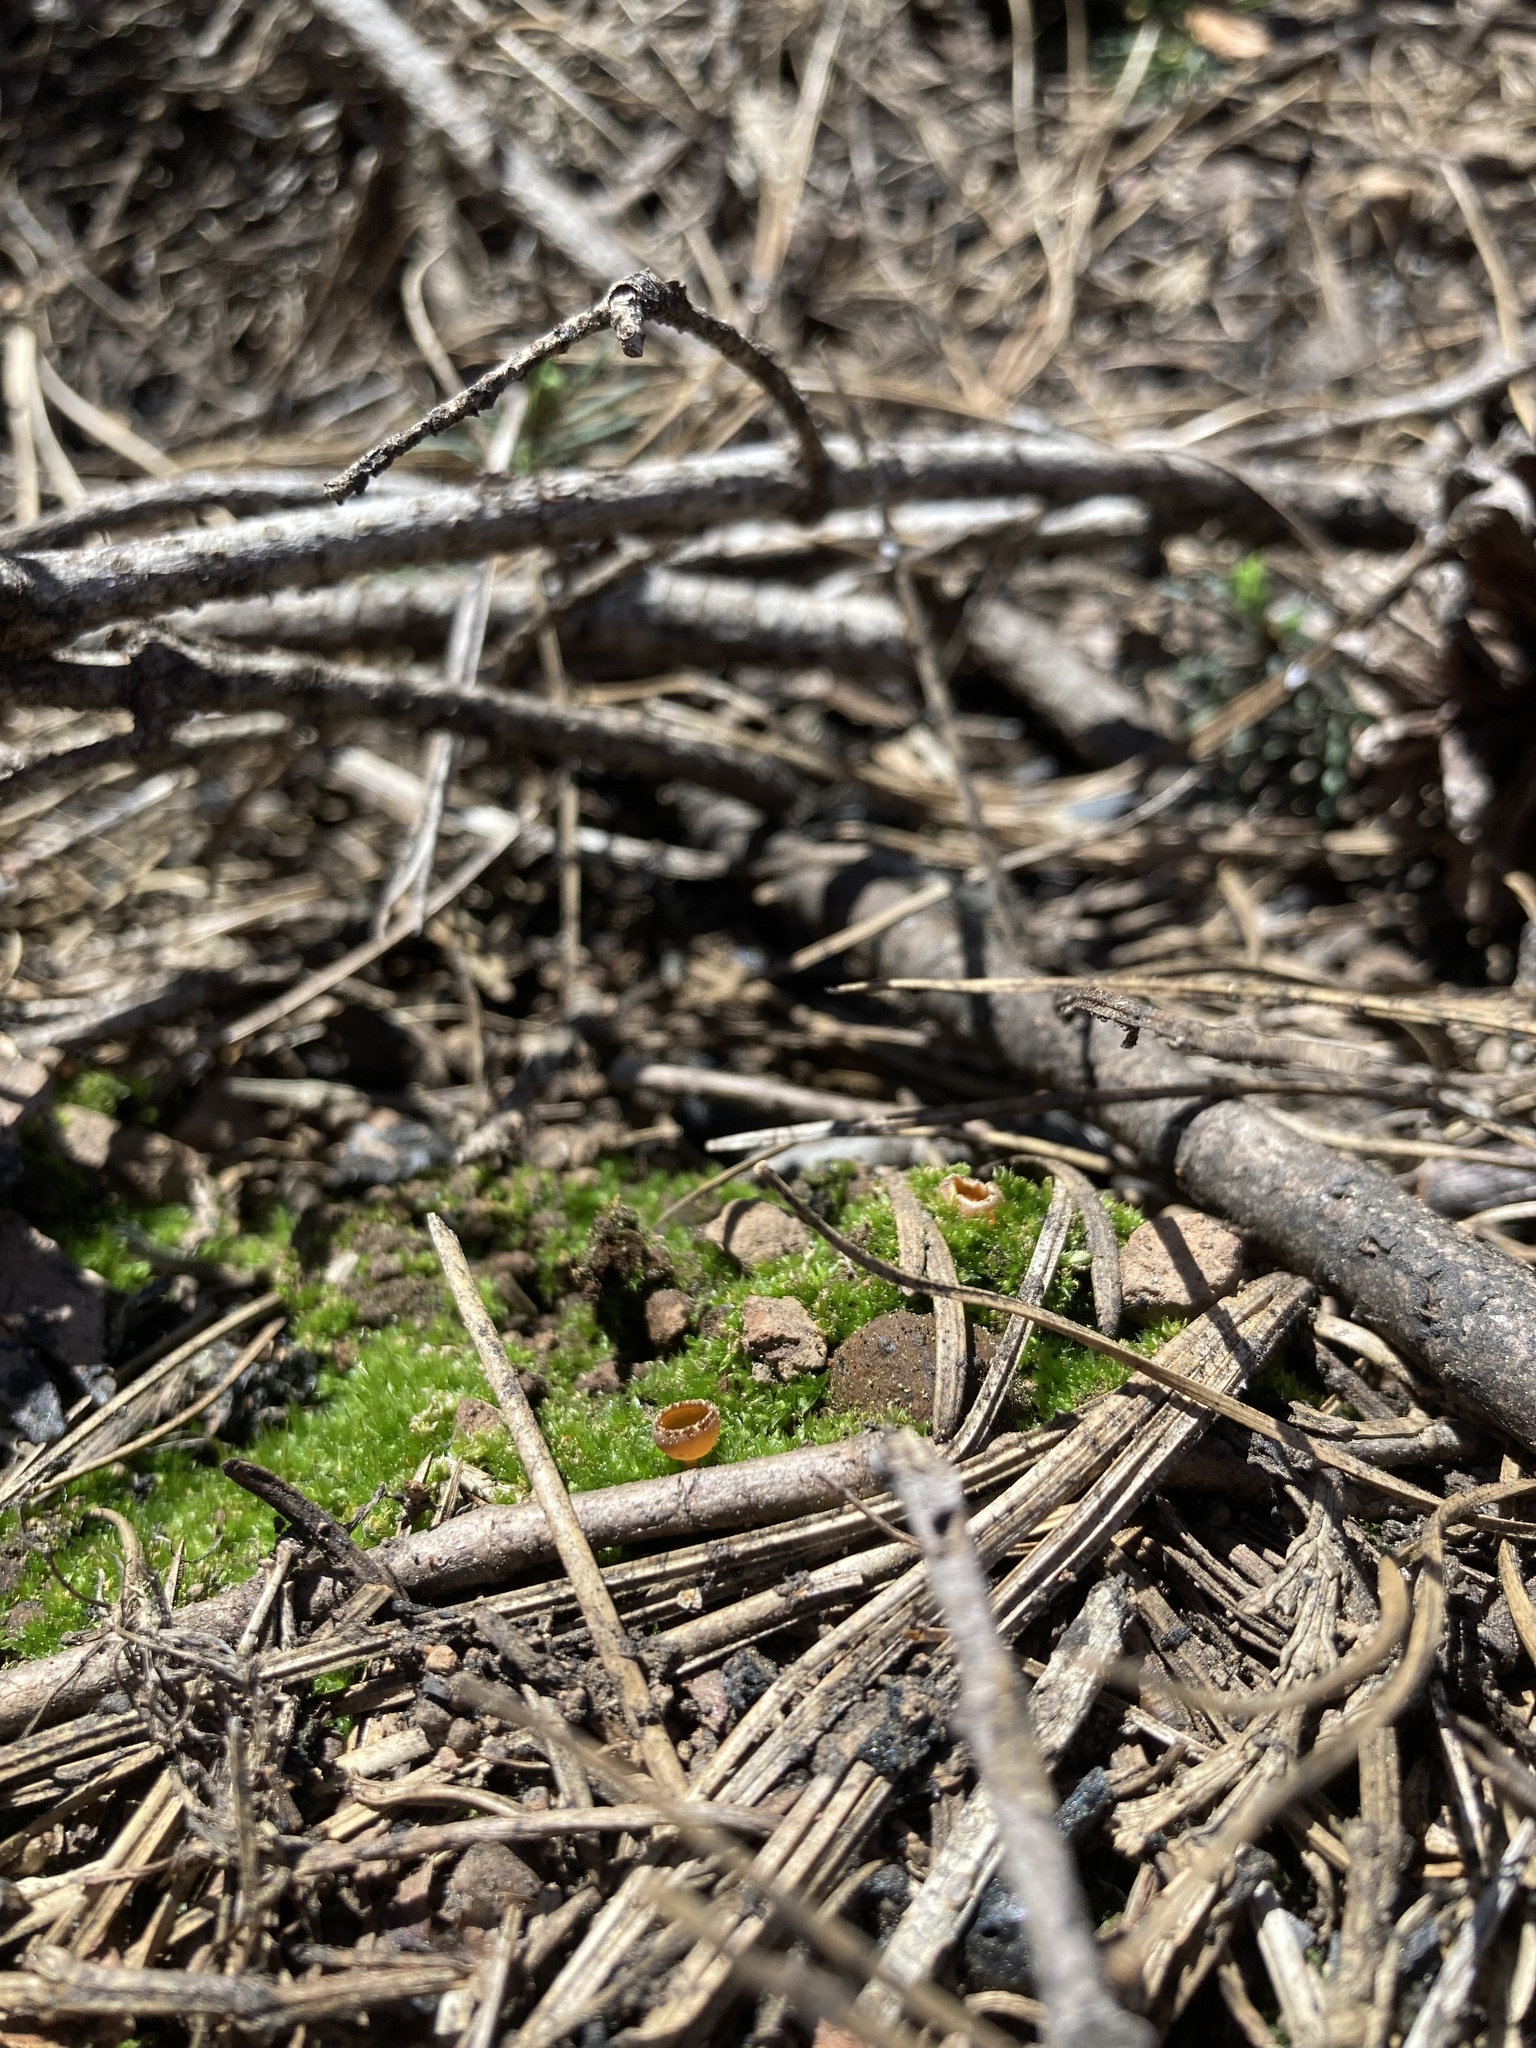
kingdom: Fungi
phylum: Ascomycota
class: Pezizomycetes
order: Pezizales
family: Pyronemataceae
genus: Geopyxis
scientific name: Geopyxis carbonaria
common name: Stalked bonfire cup
